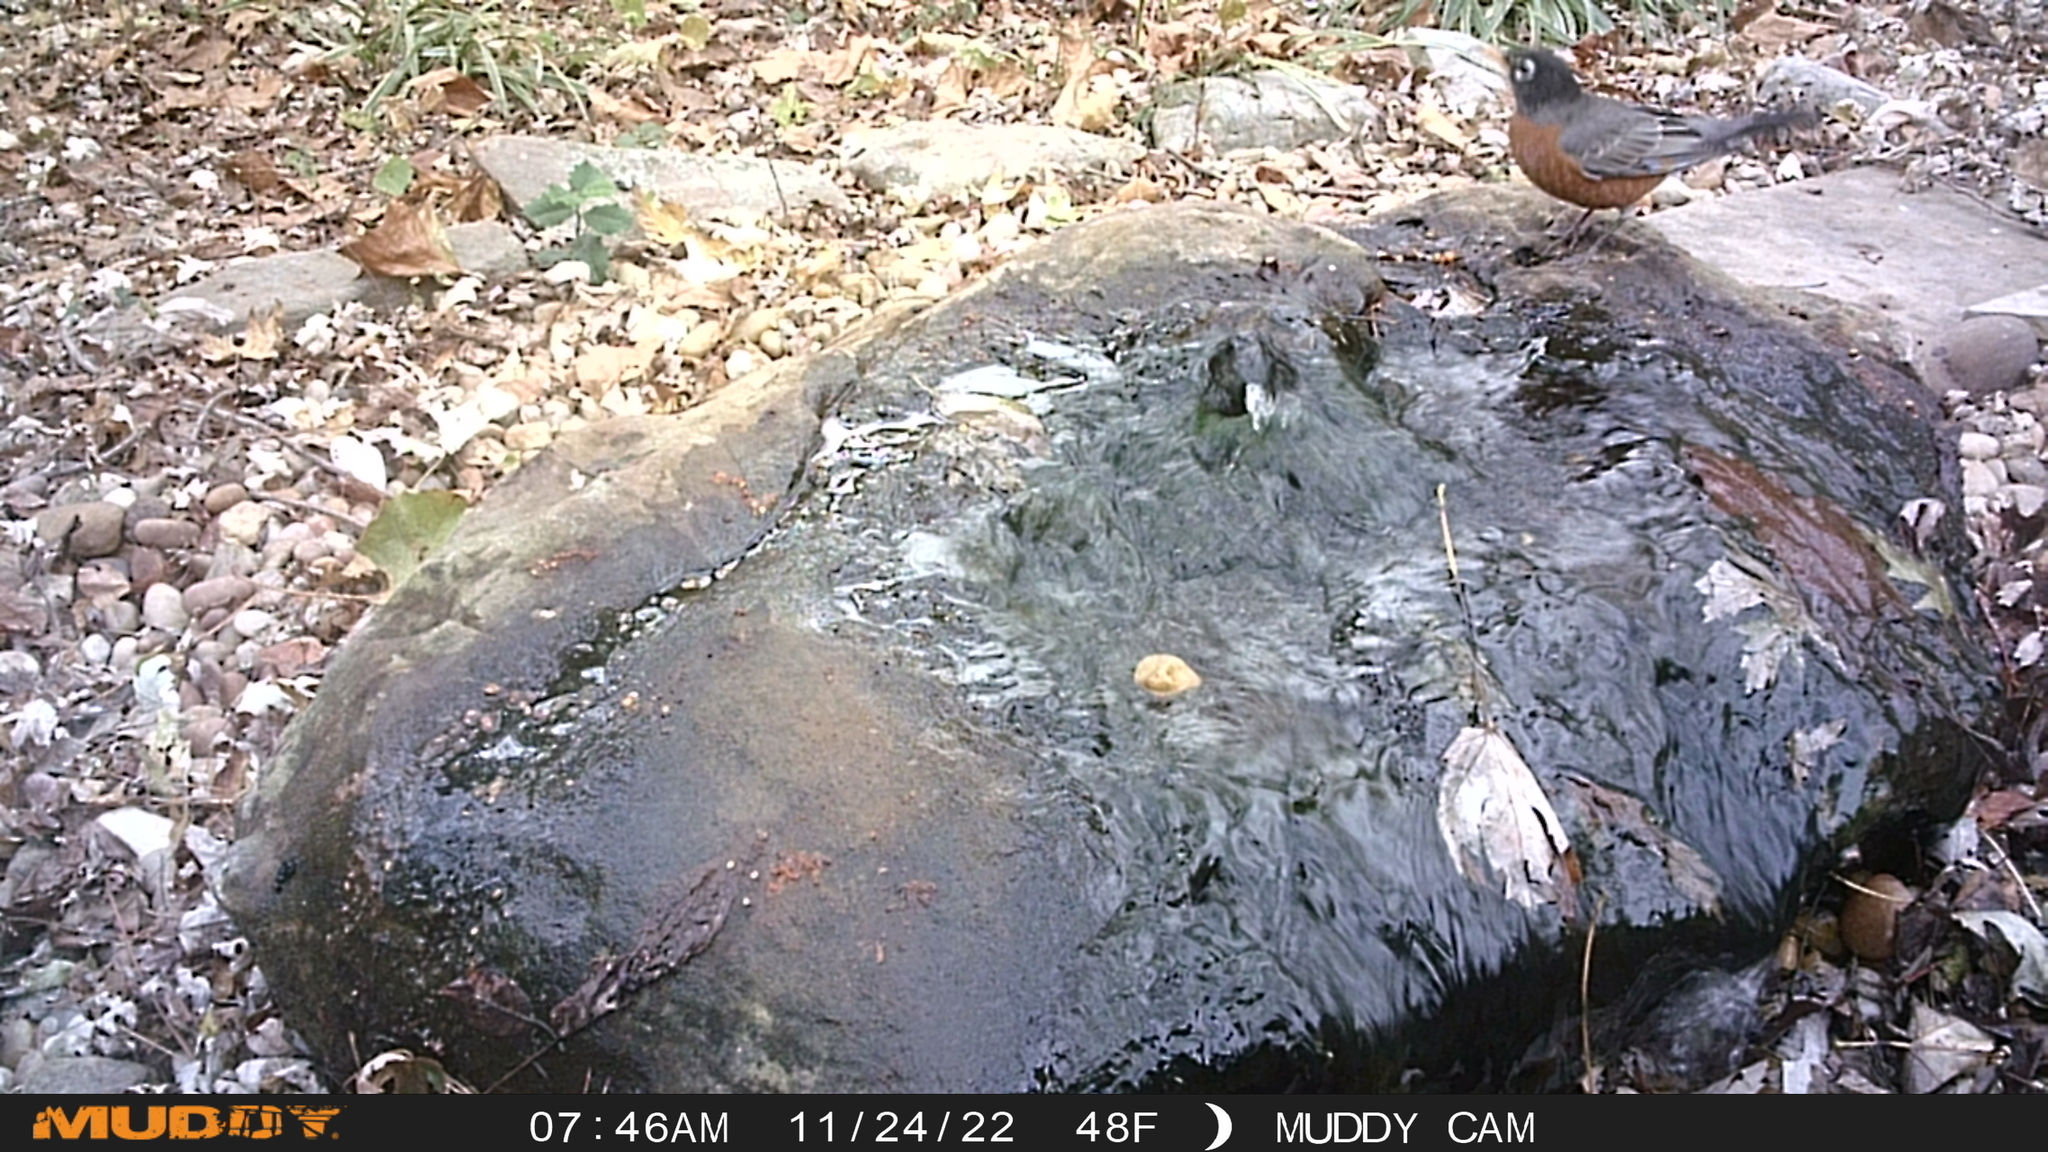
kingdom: Animalia
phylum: Chordata
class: Aves
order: Passeriformes
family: Turdidae
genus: Turdus
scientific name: Turdus migratorius
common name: American robin
